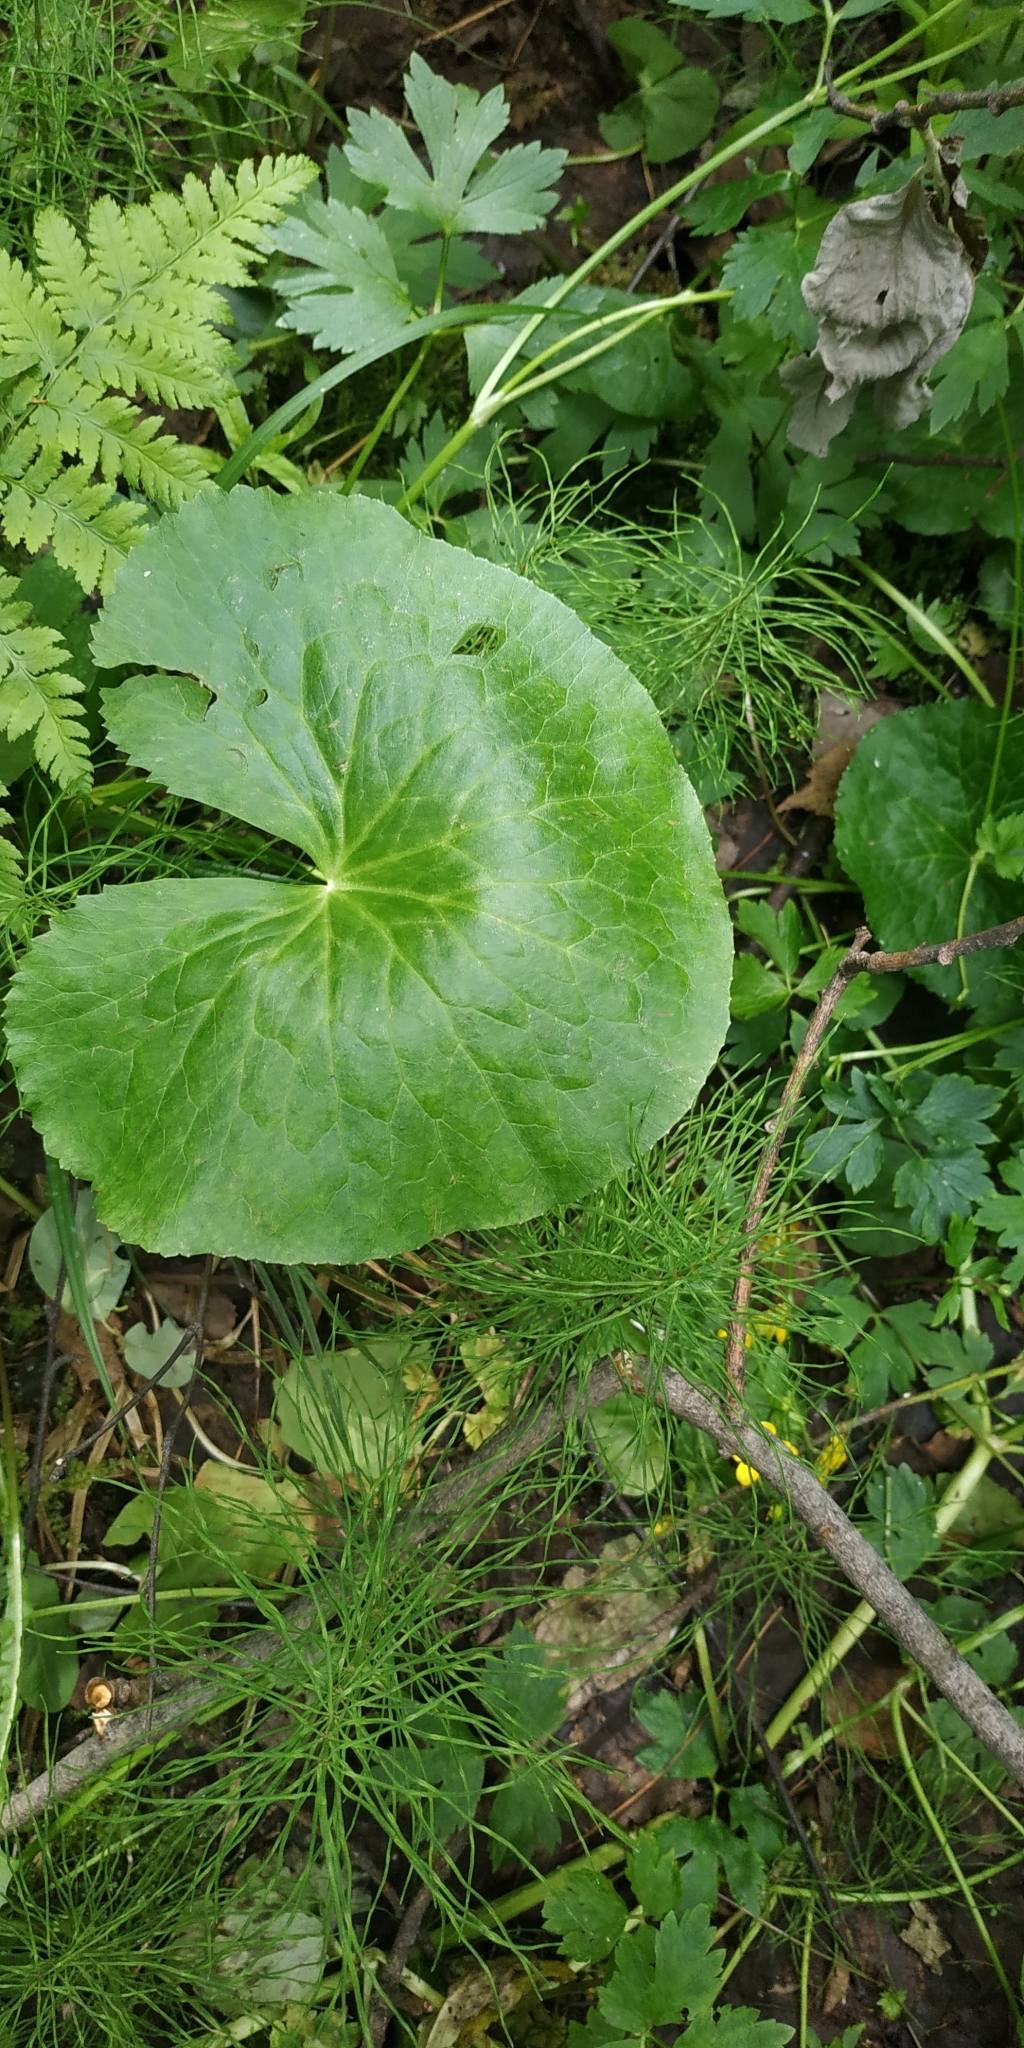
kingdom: Plantae
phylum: Tracheophyta
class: Magnoliopsida
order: Ranunculales
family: Ranunculaceae
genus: Caltha
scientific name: Caltha palustris
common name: Marsh marigold
